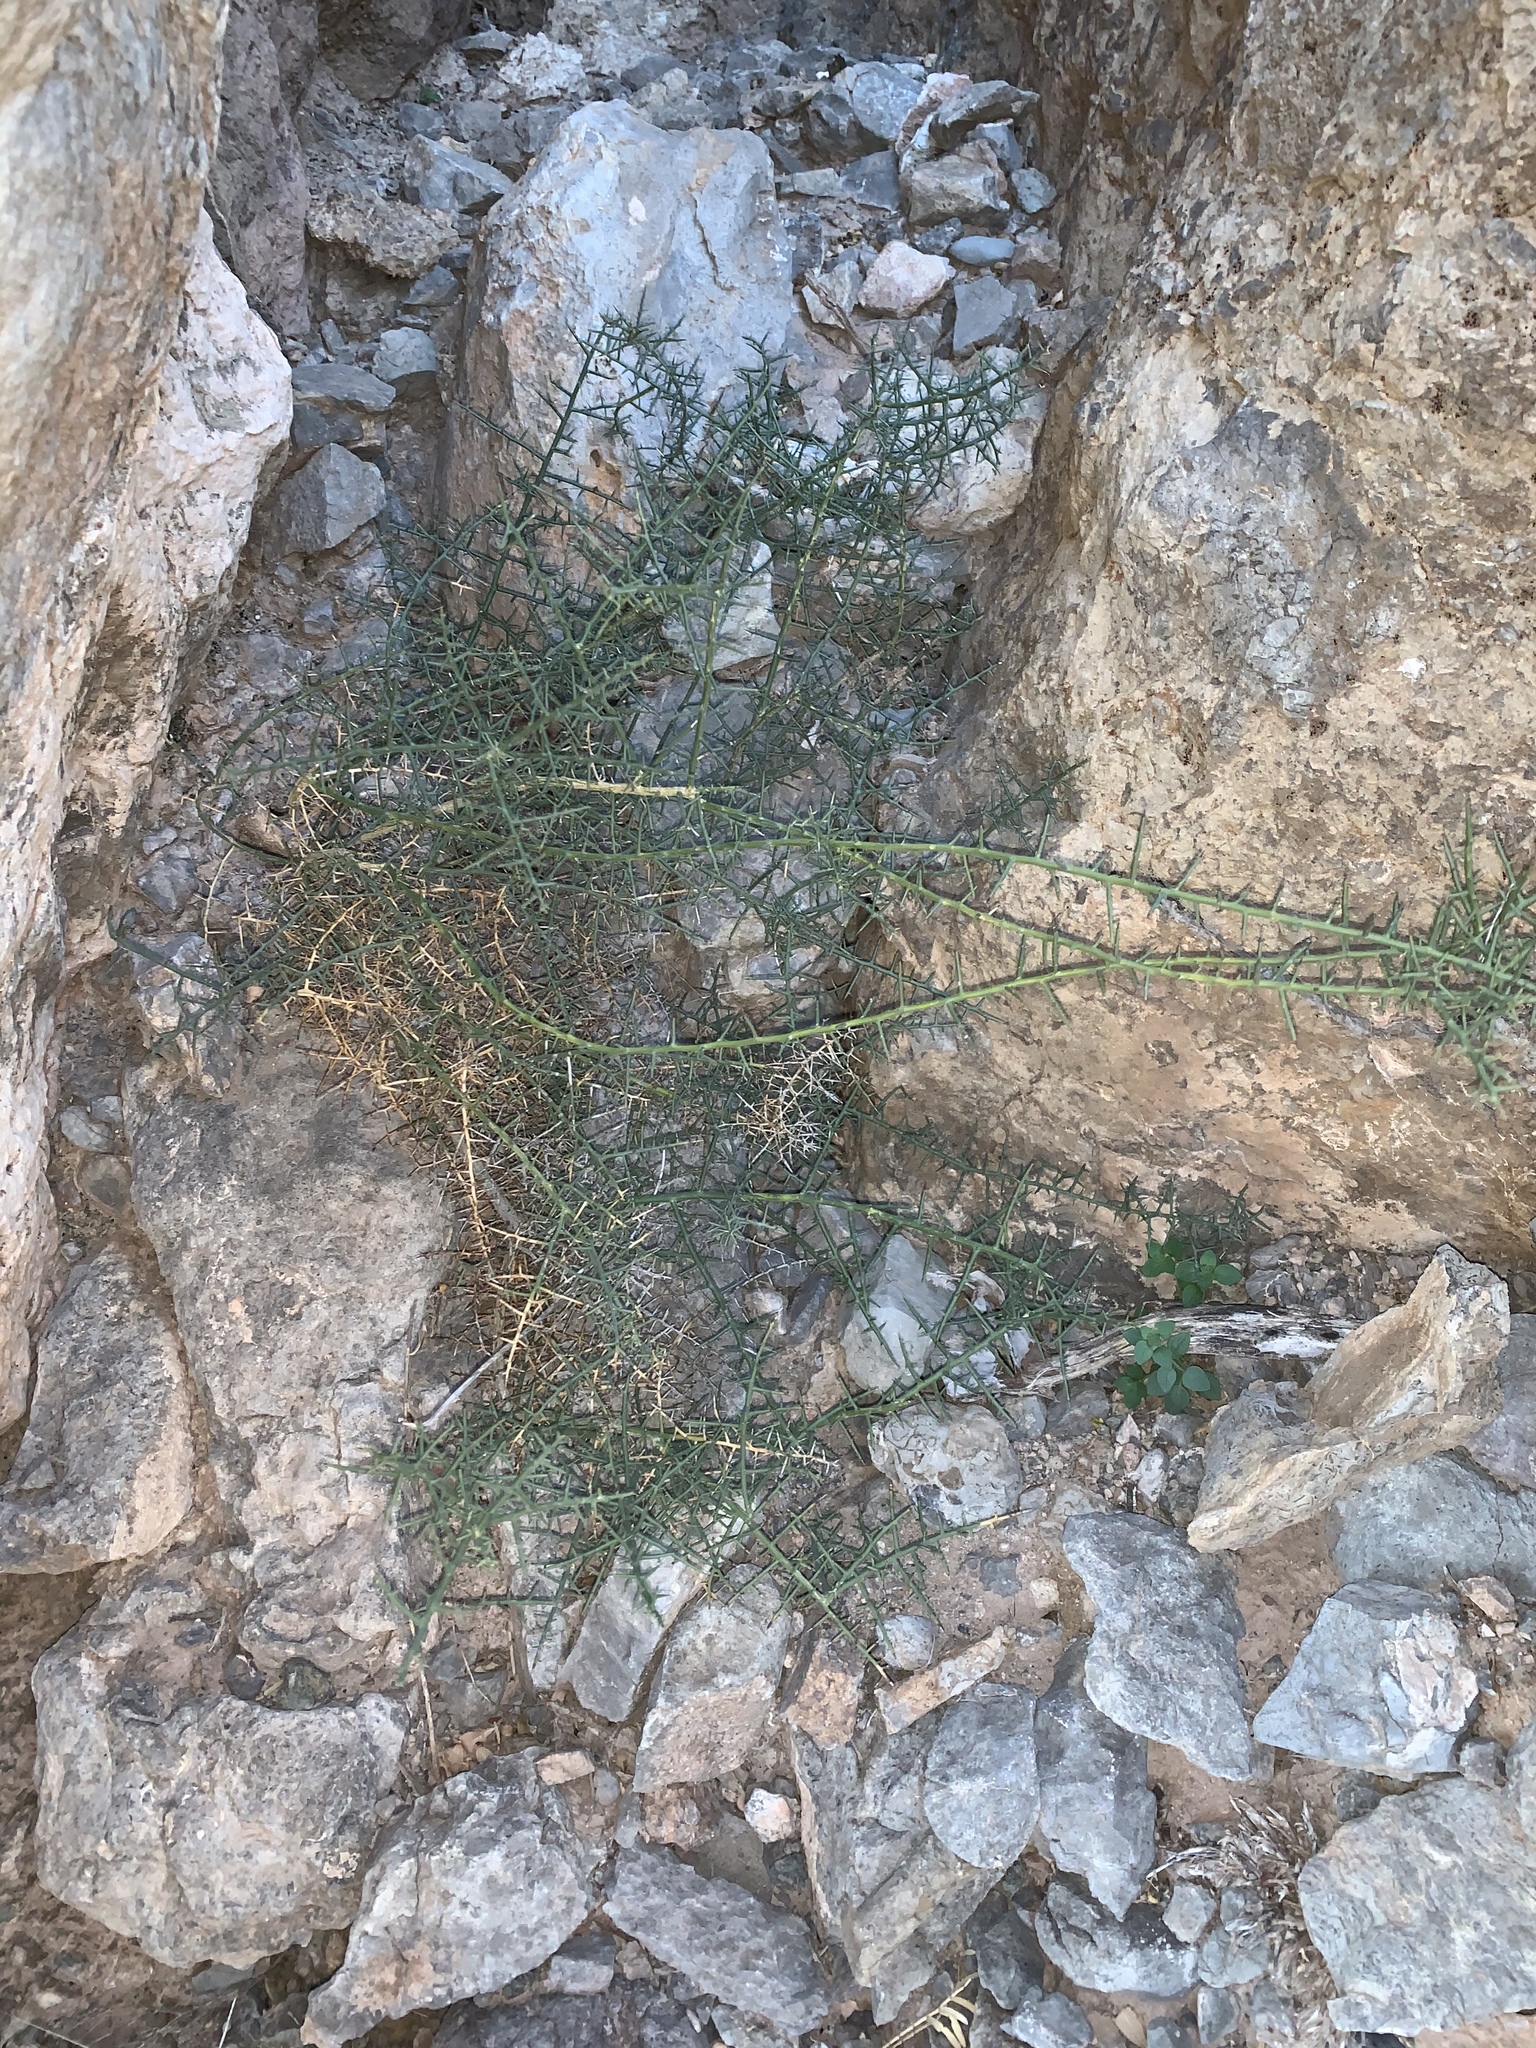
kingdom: Plantae
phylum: Tracheophyta
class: Magnoliopsida
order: Brassicales
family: Koeberliniaceae
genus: Koeberlinia
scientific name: Koeberlinia spinosa
